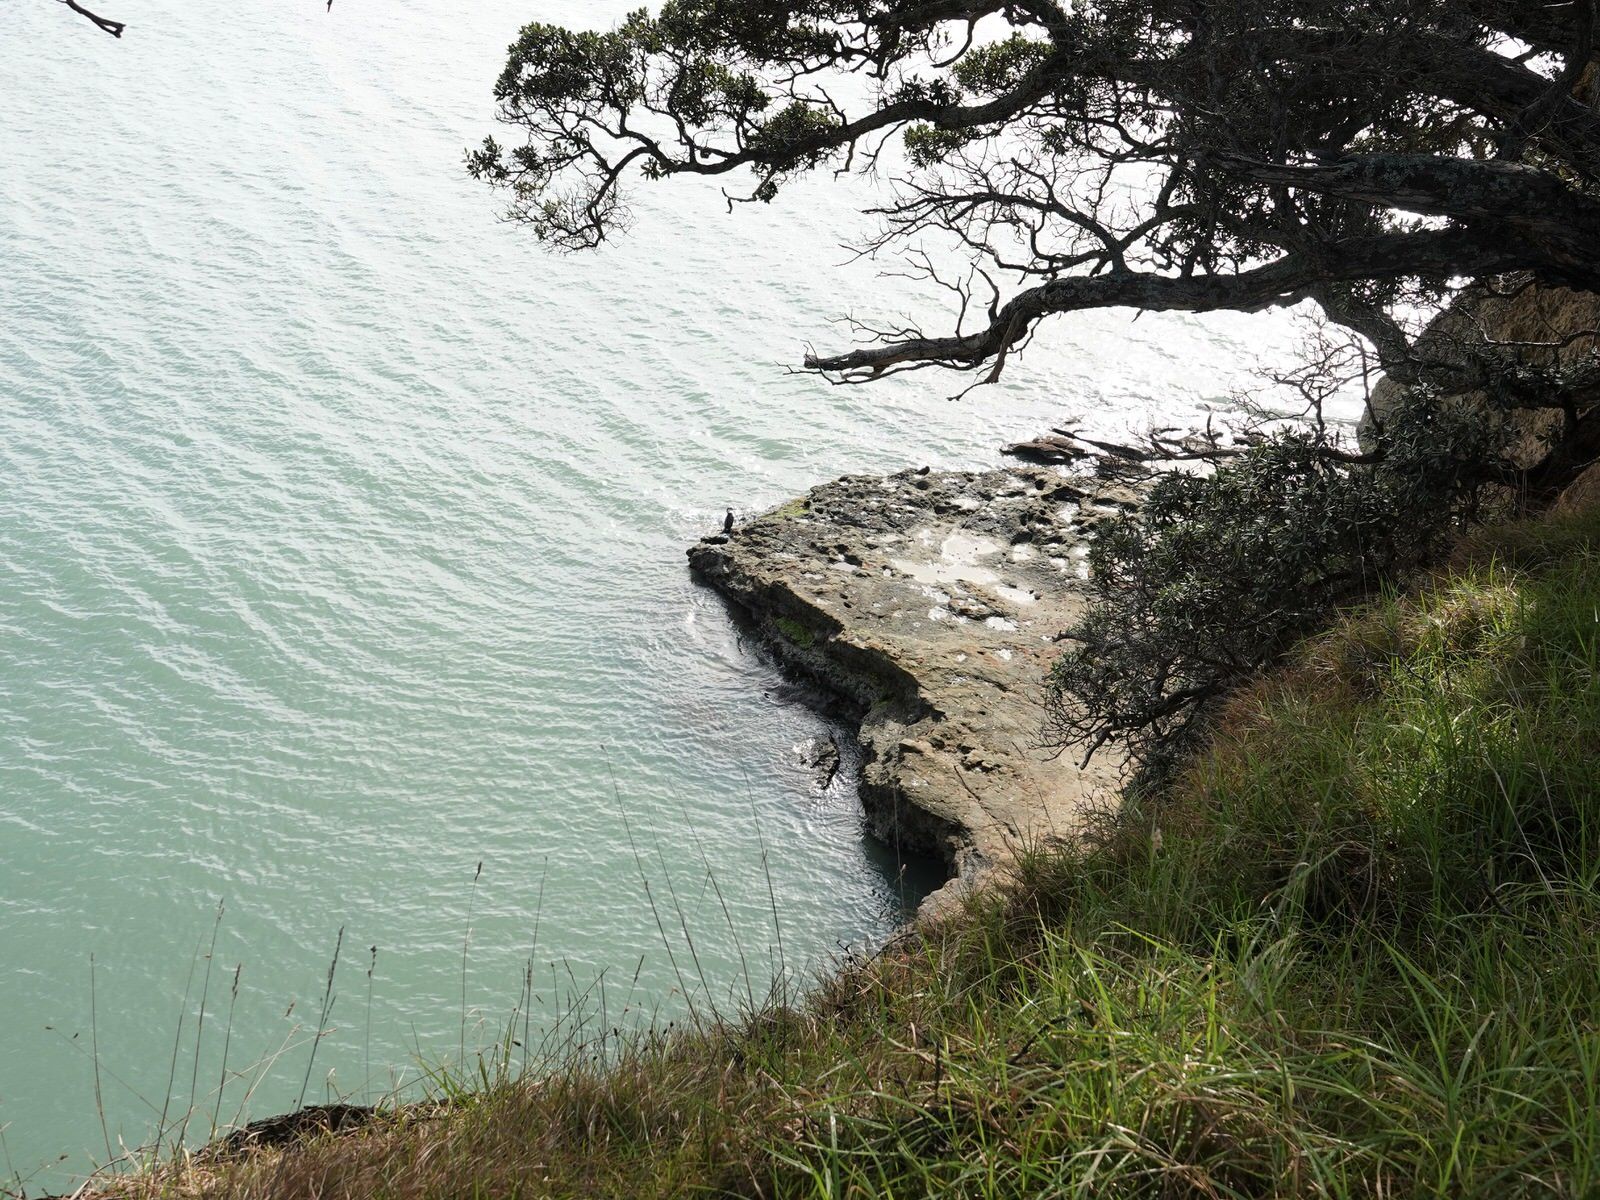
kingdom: Animalia
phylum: Chordata
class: Aves
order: Charadriiformes
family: Haematopodidae
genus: Haematopus
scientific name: Haematopus unicolor
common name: Variable oystercatcher
